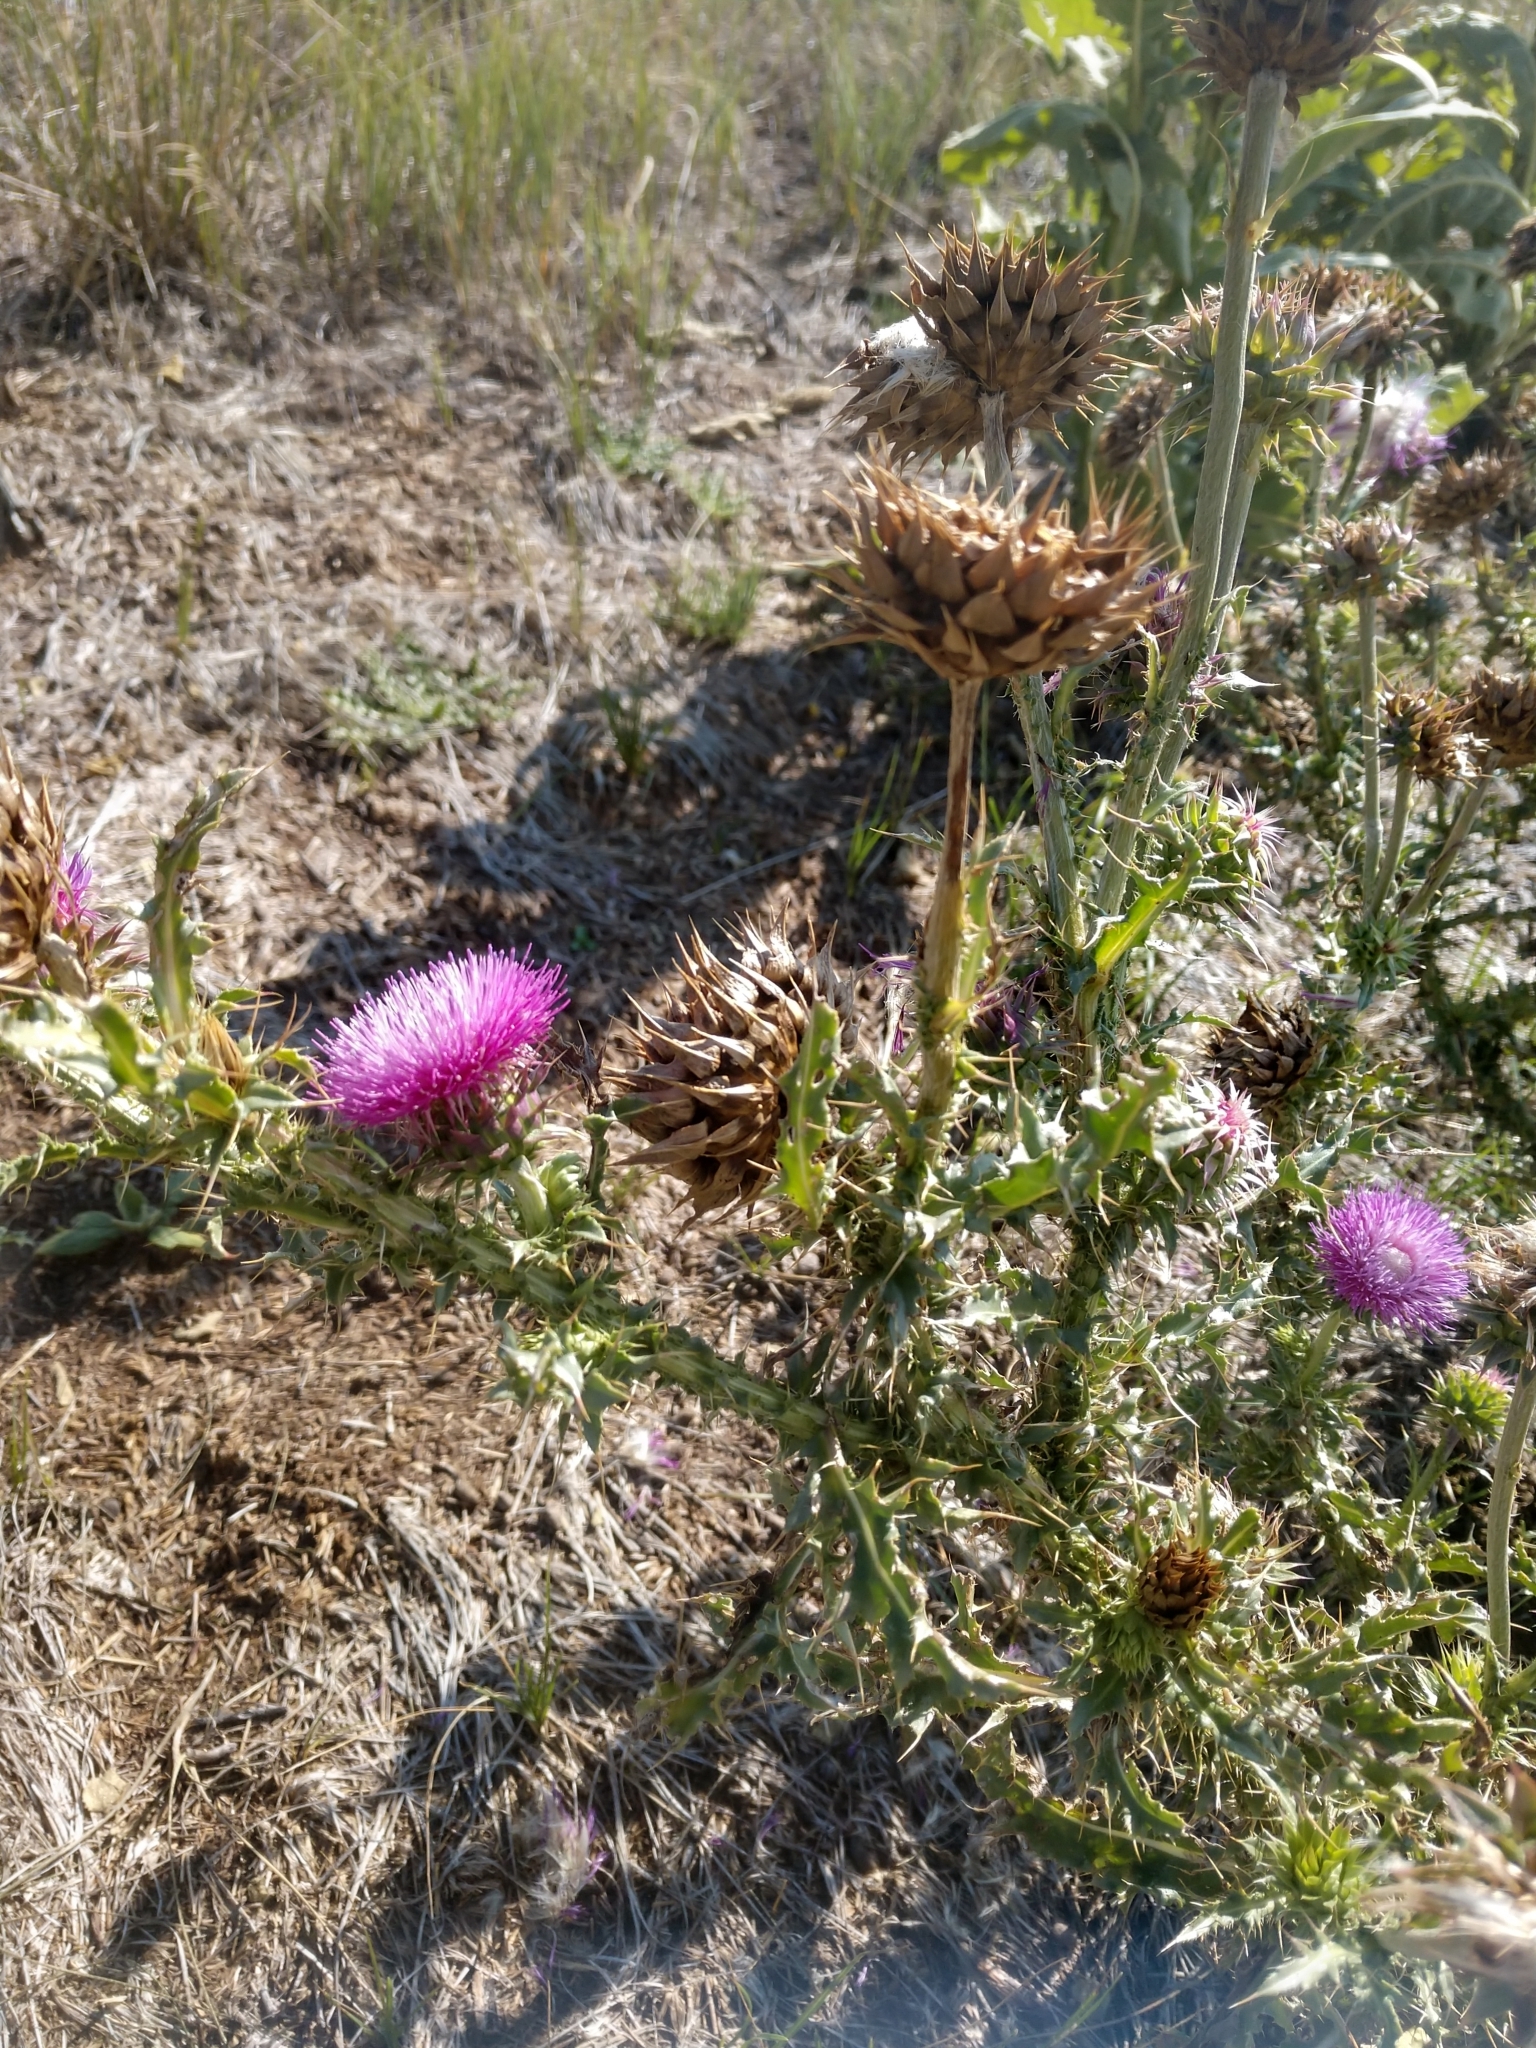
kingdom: Plantae
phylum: Tracheophyta
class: Magnoliopsida
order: Asterales
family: Asteraceae
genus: Carduus
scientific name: Carduus nutans
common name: Musk thistle
